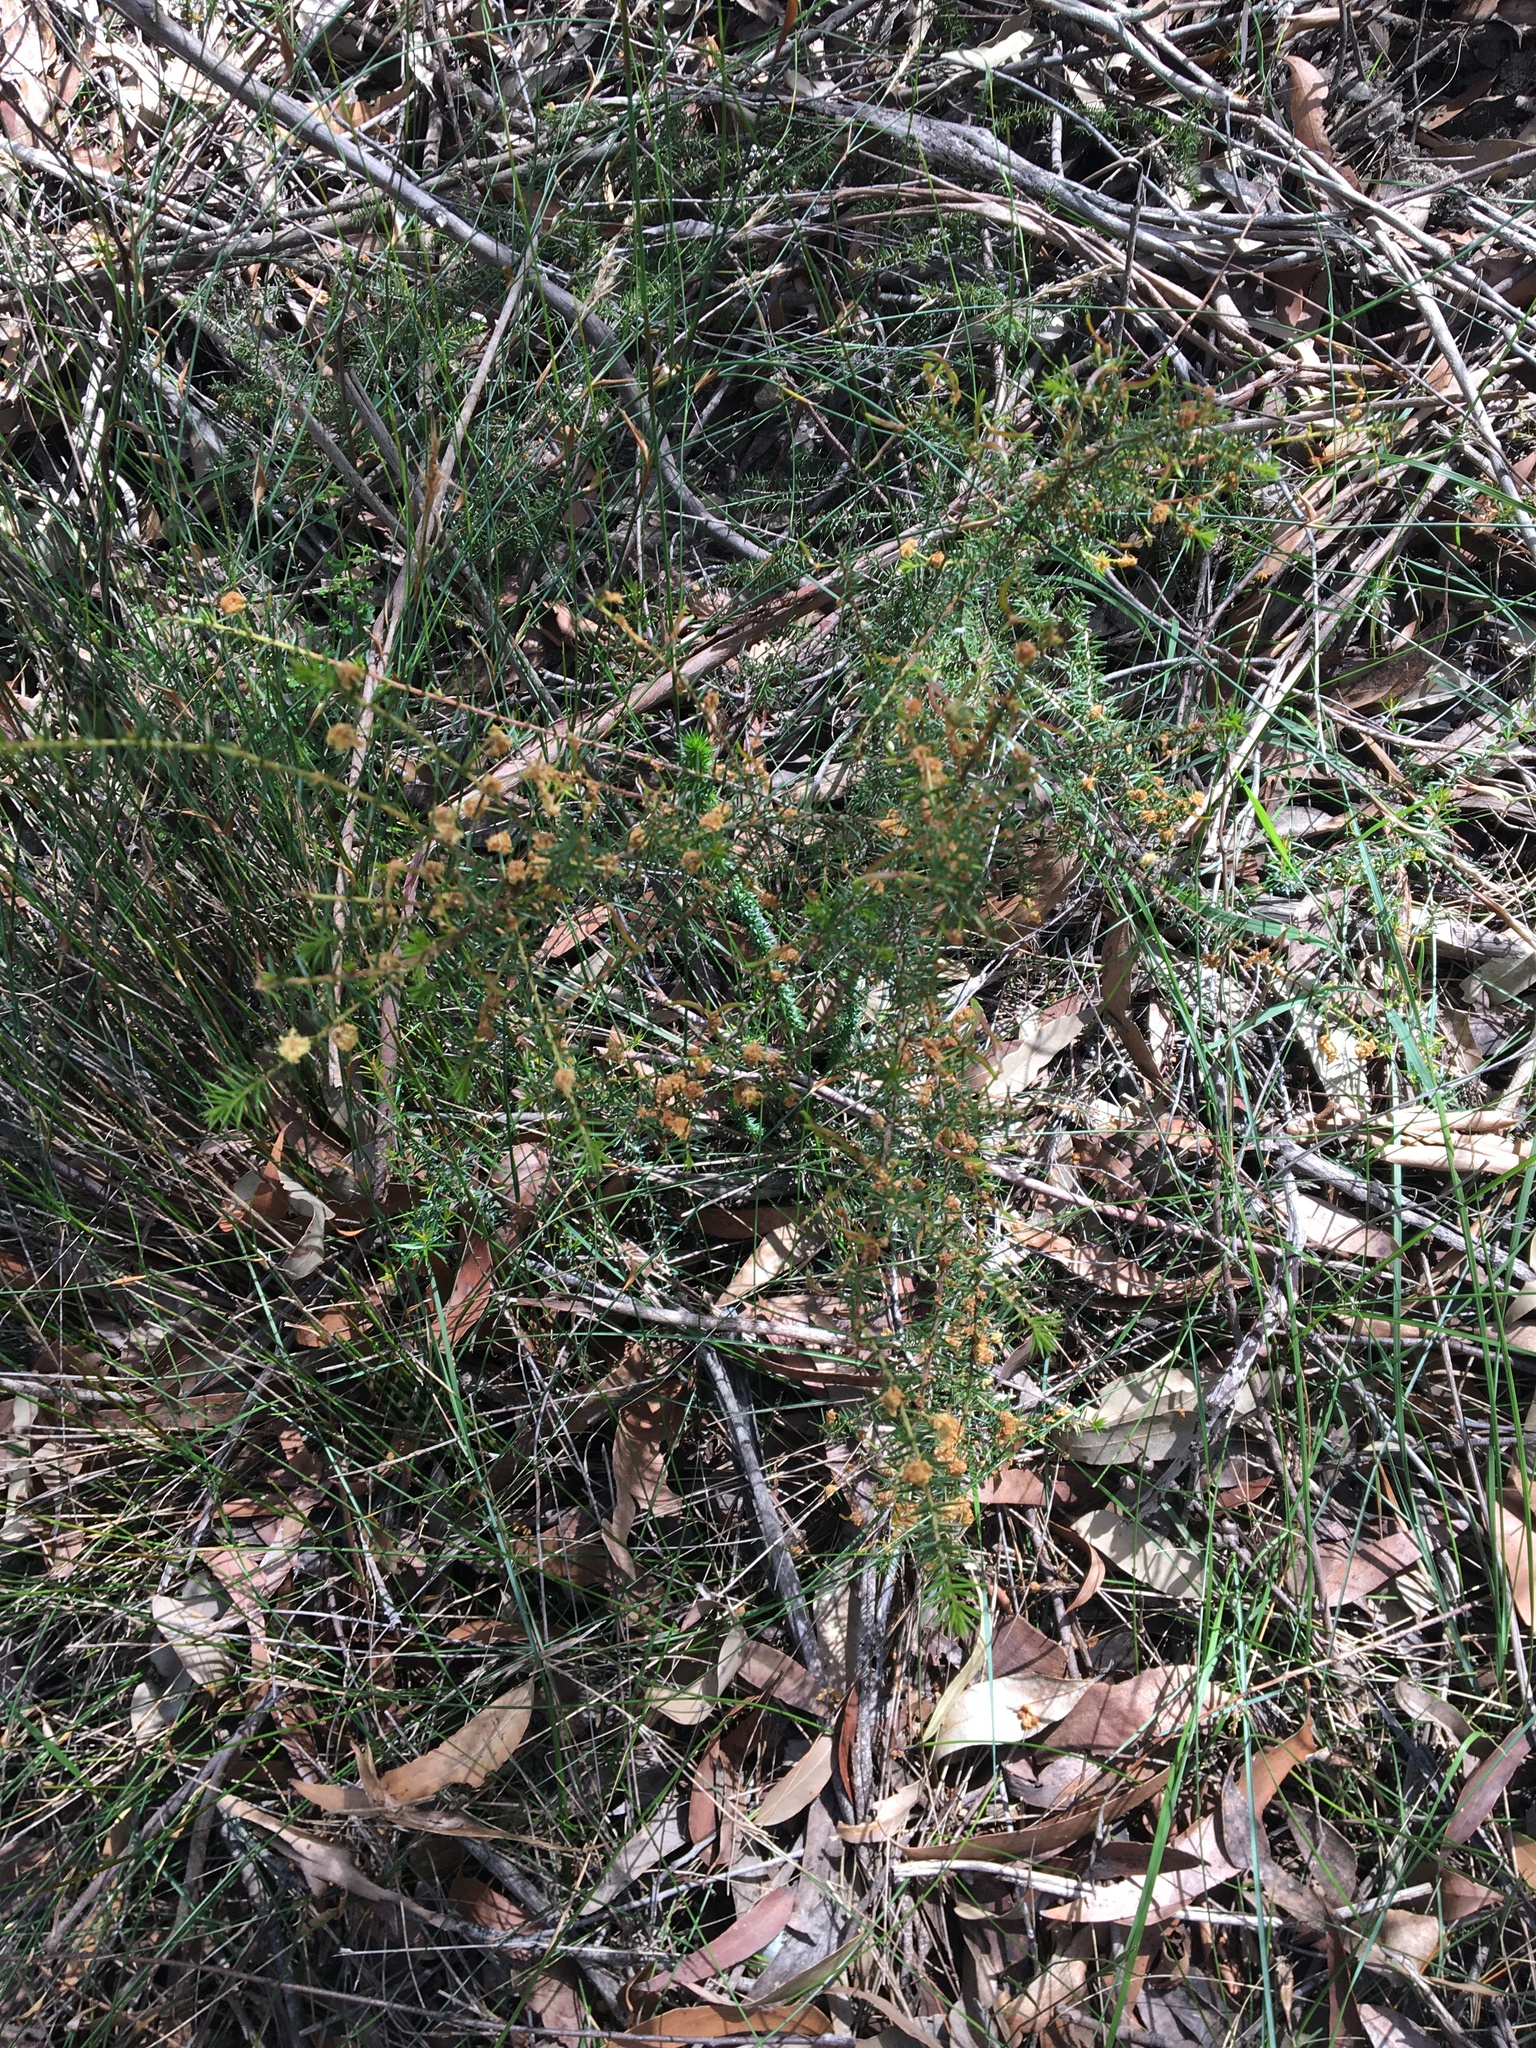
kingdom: Plantae
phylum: Tracheophyta
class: Magnoliopsida
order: Fabales
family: Fabaceae
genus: Acacia
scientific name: Acacia ulicifolia
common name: Juniper wattle
